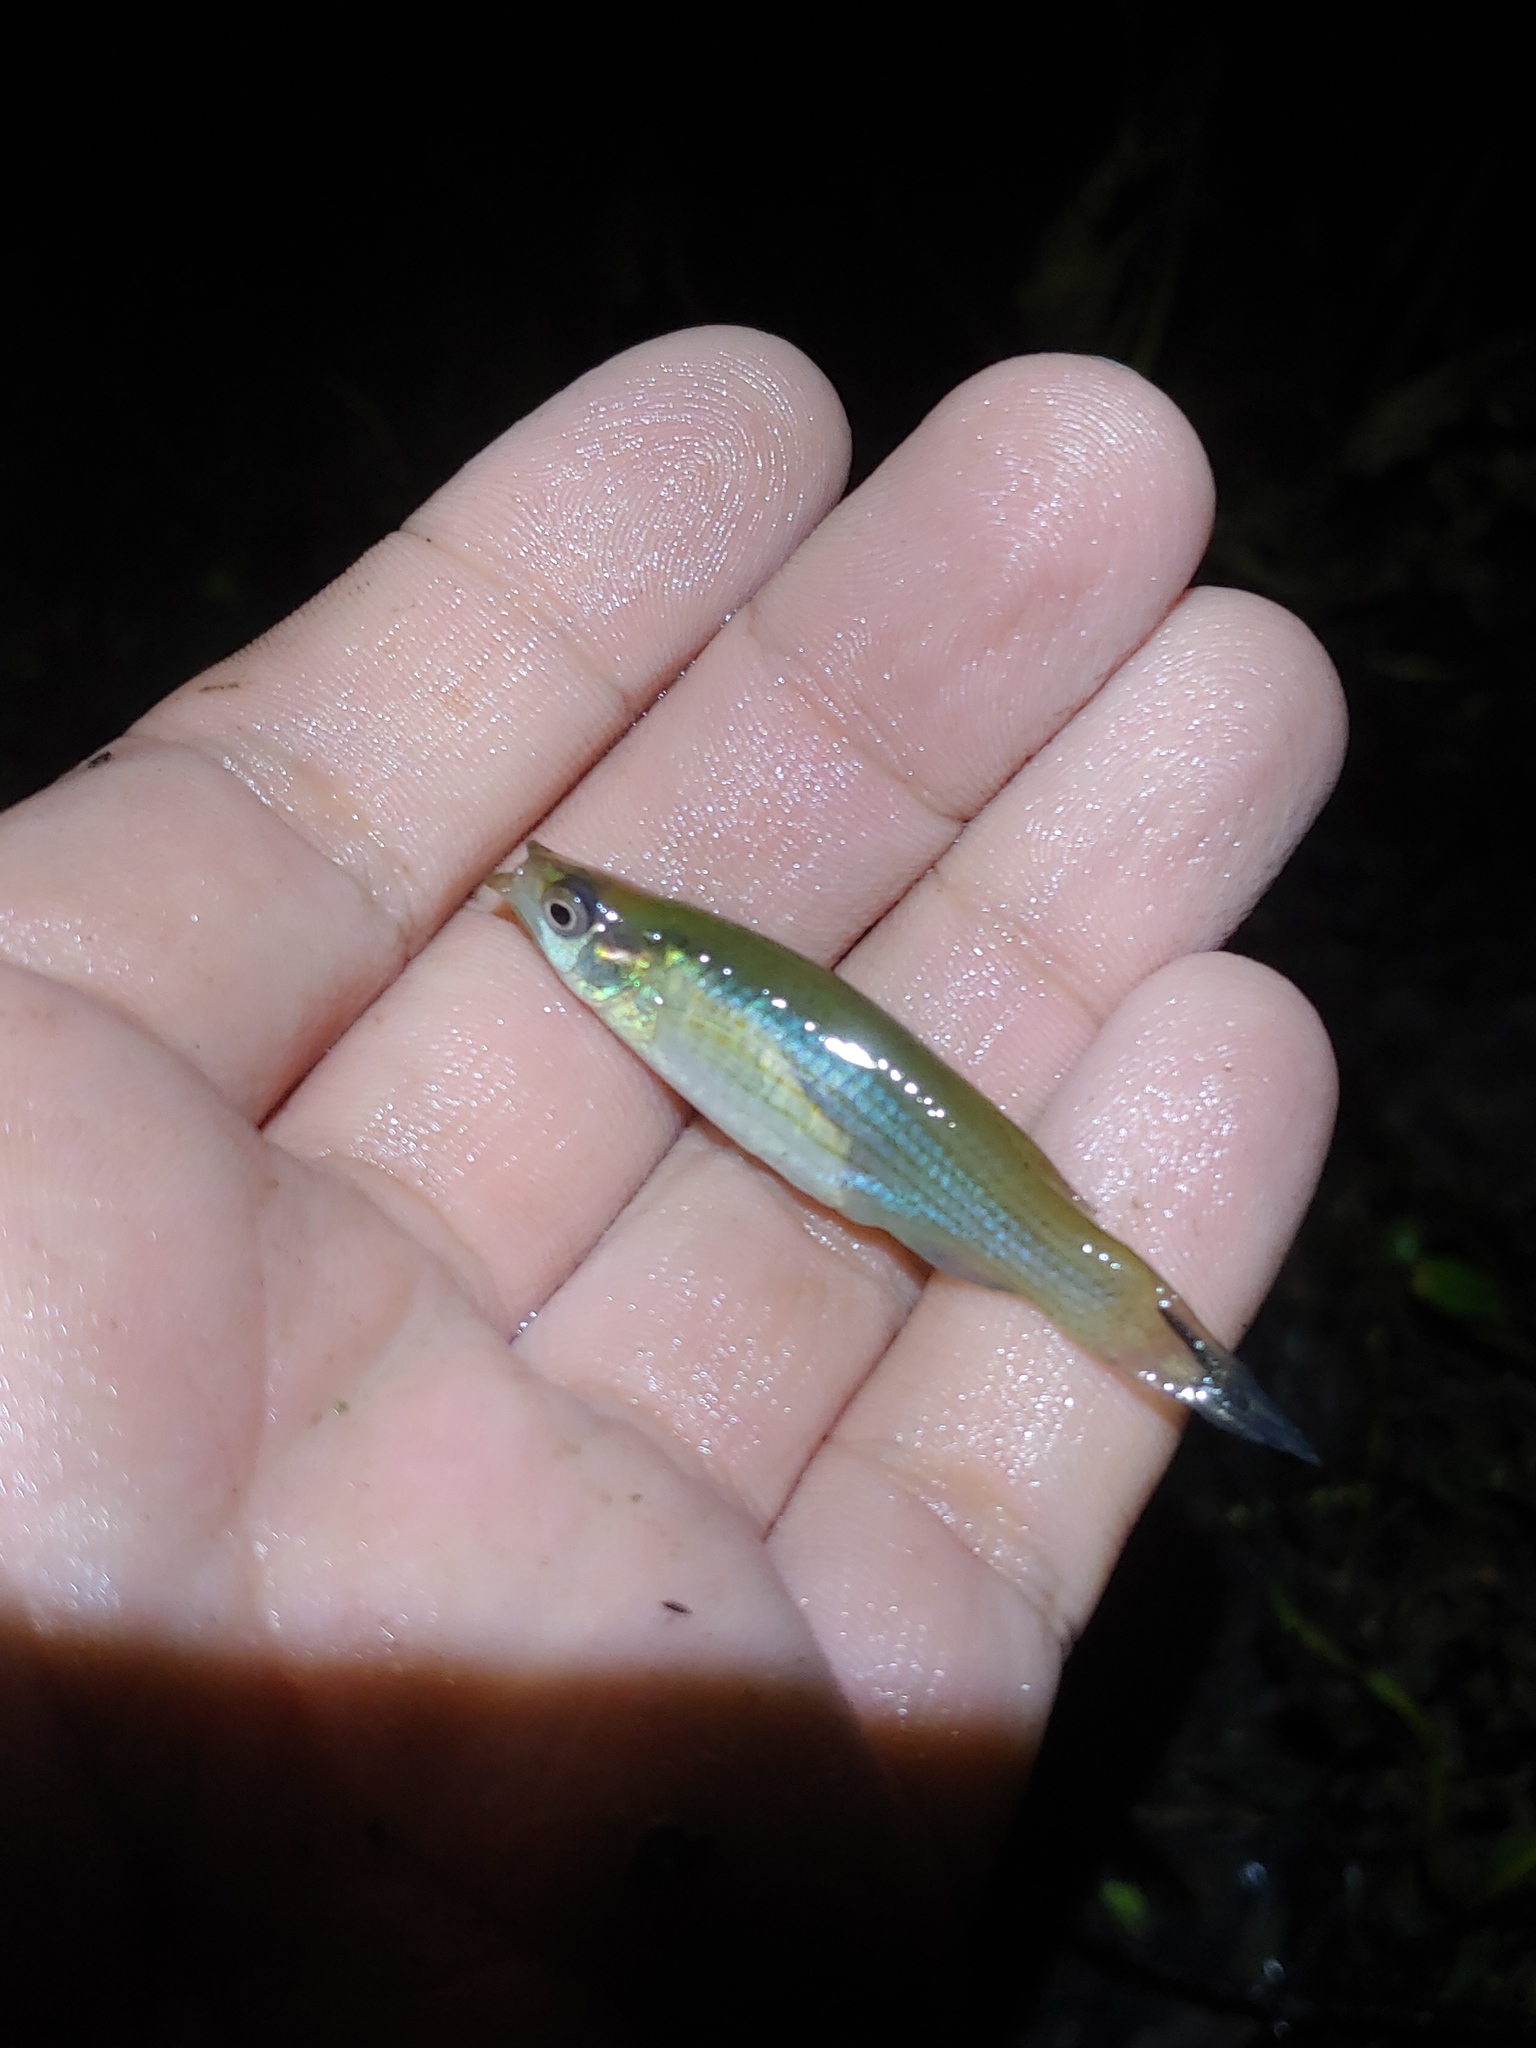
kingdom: Animalia
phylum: Chordata
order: Cyprinodontiformes
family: Fundulidae
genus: Fundulus
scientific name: Fundulus dispar
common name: Starhead topminnow
